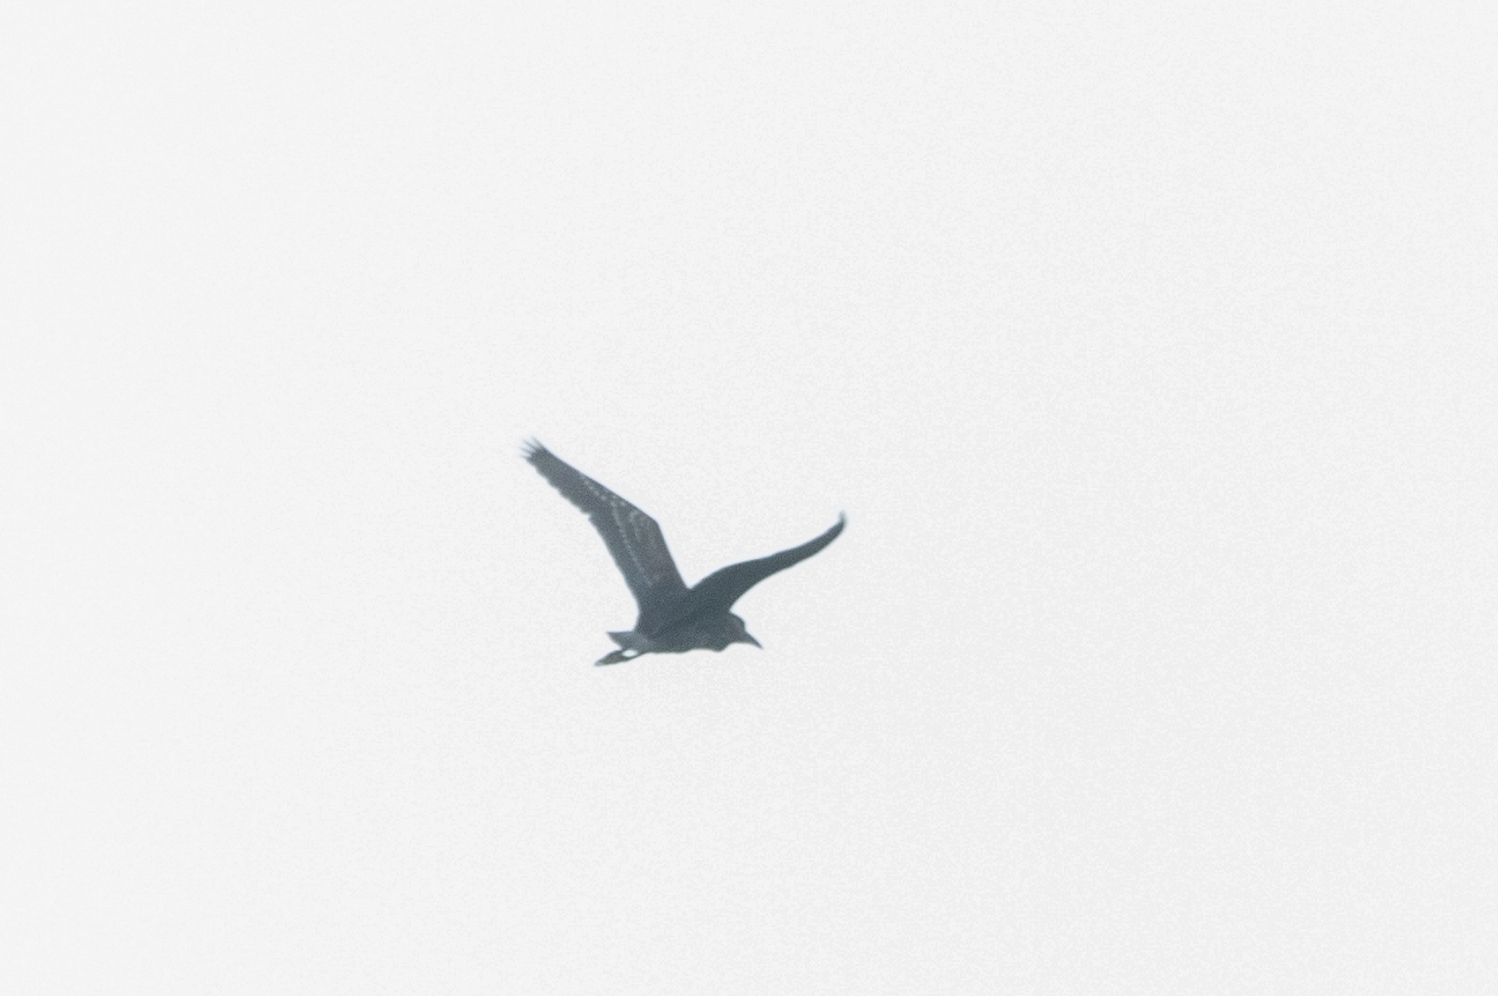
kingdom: Animalia
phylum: Chordata
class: Aves
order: Pelecaniformes
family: Ardeidae
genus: Nycticorax
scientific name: Nycticorax nycticorax
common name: Black-crowned night heron
